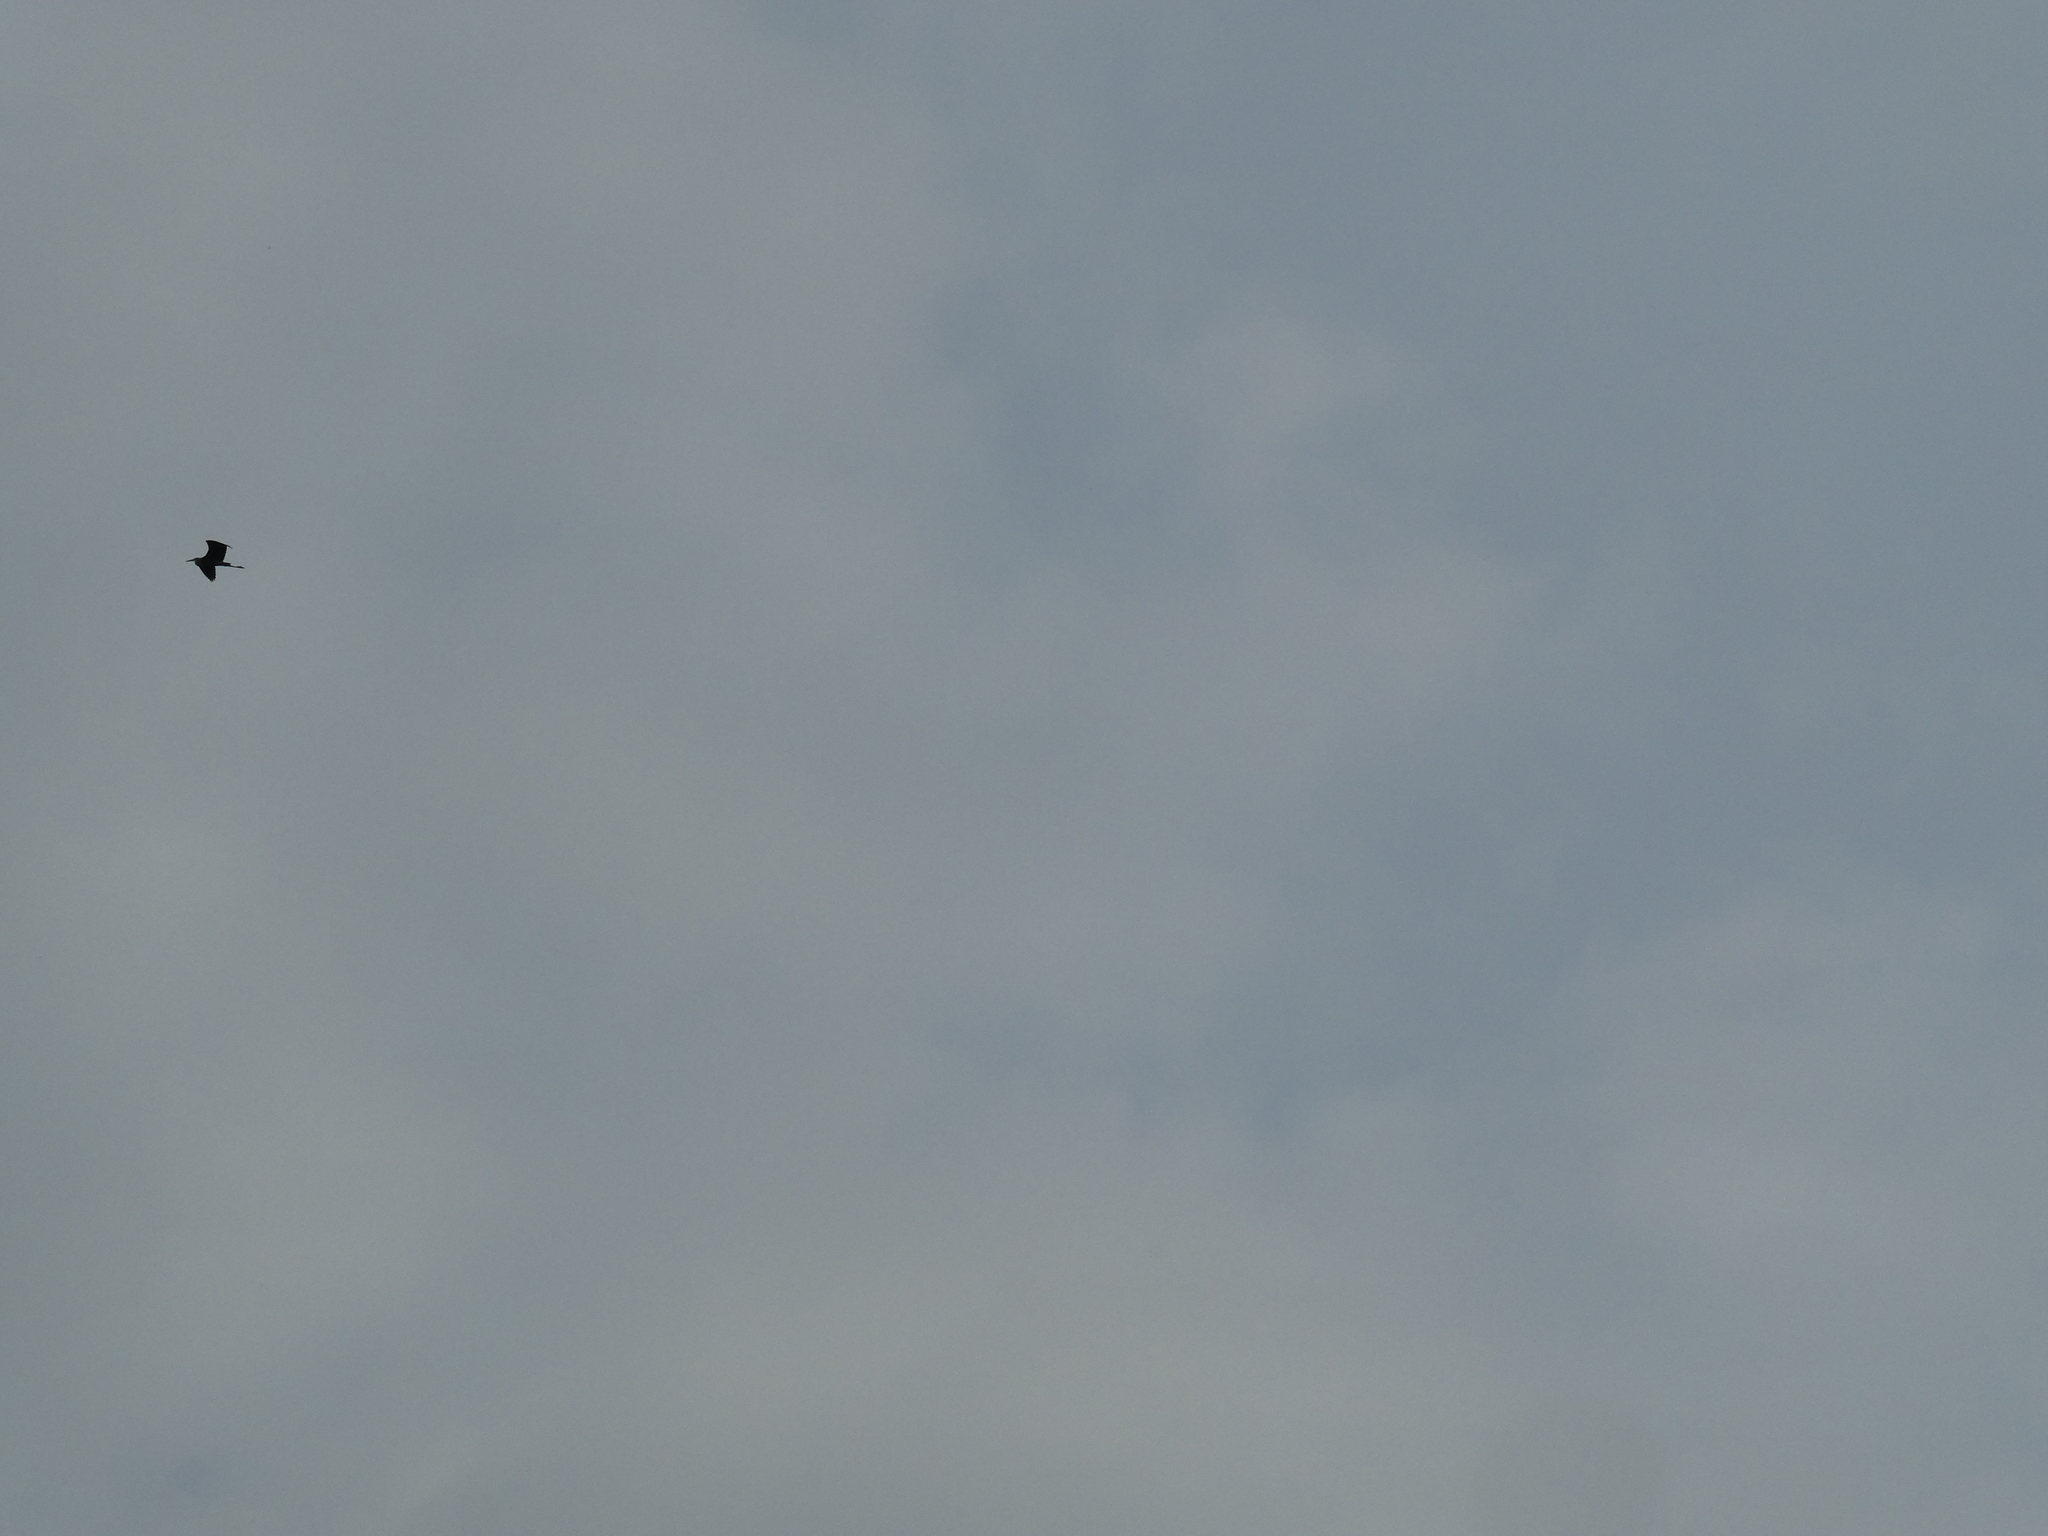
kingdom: Animalia
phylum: Chordata
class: Aves
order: Pelecaniformes
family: Ardeidae
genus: Ardea
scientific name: Ardea herodias
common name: Great blue heron
